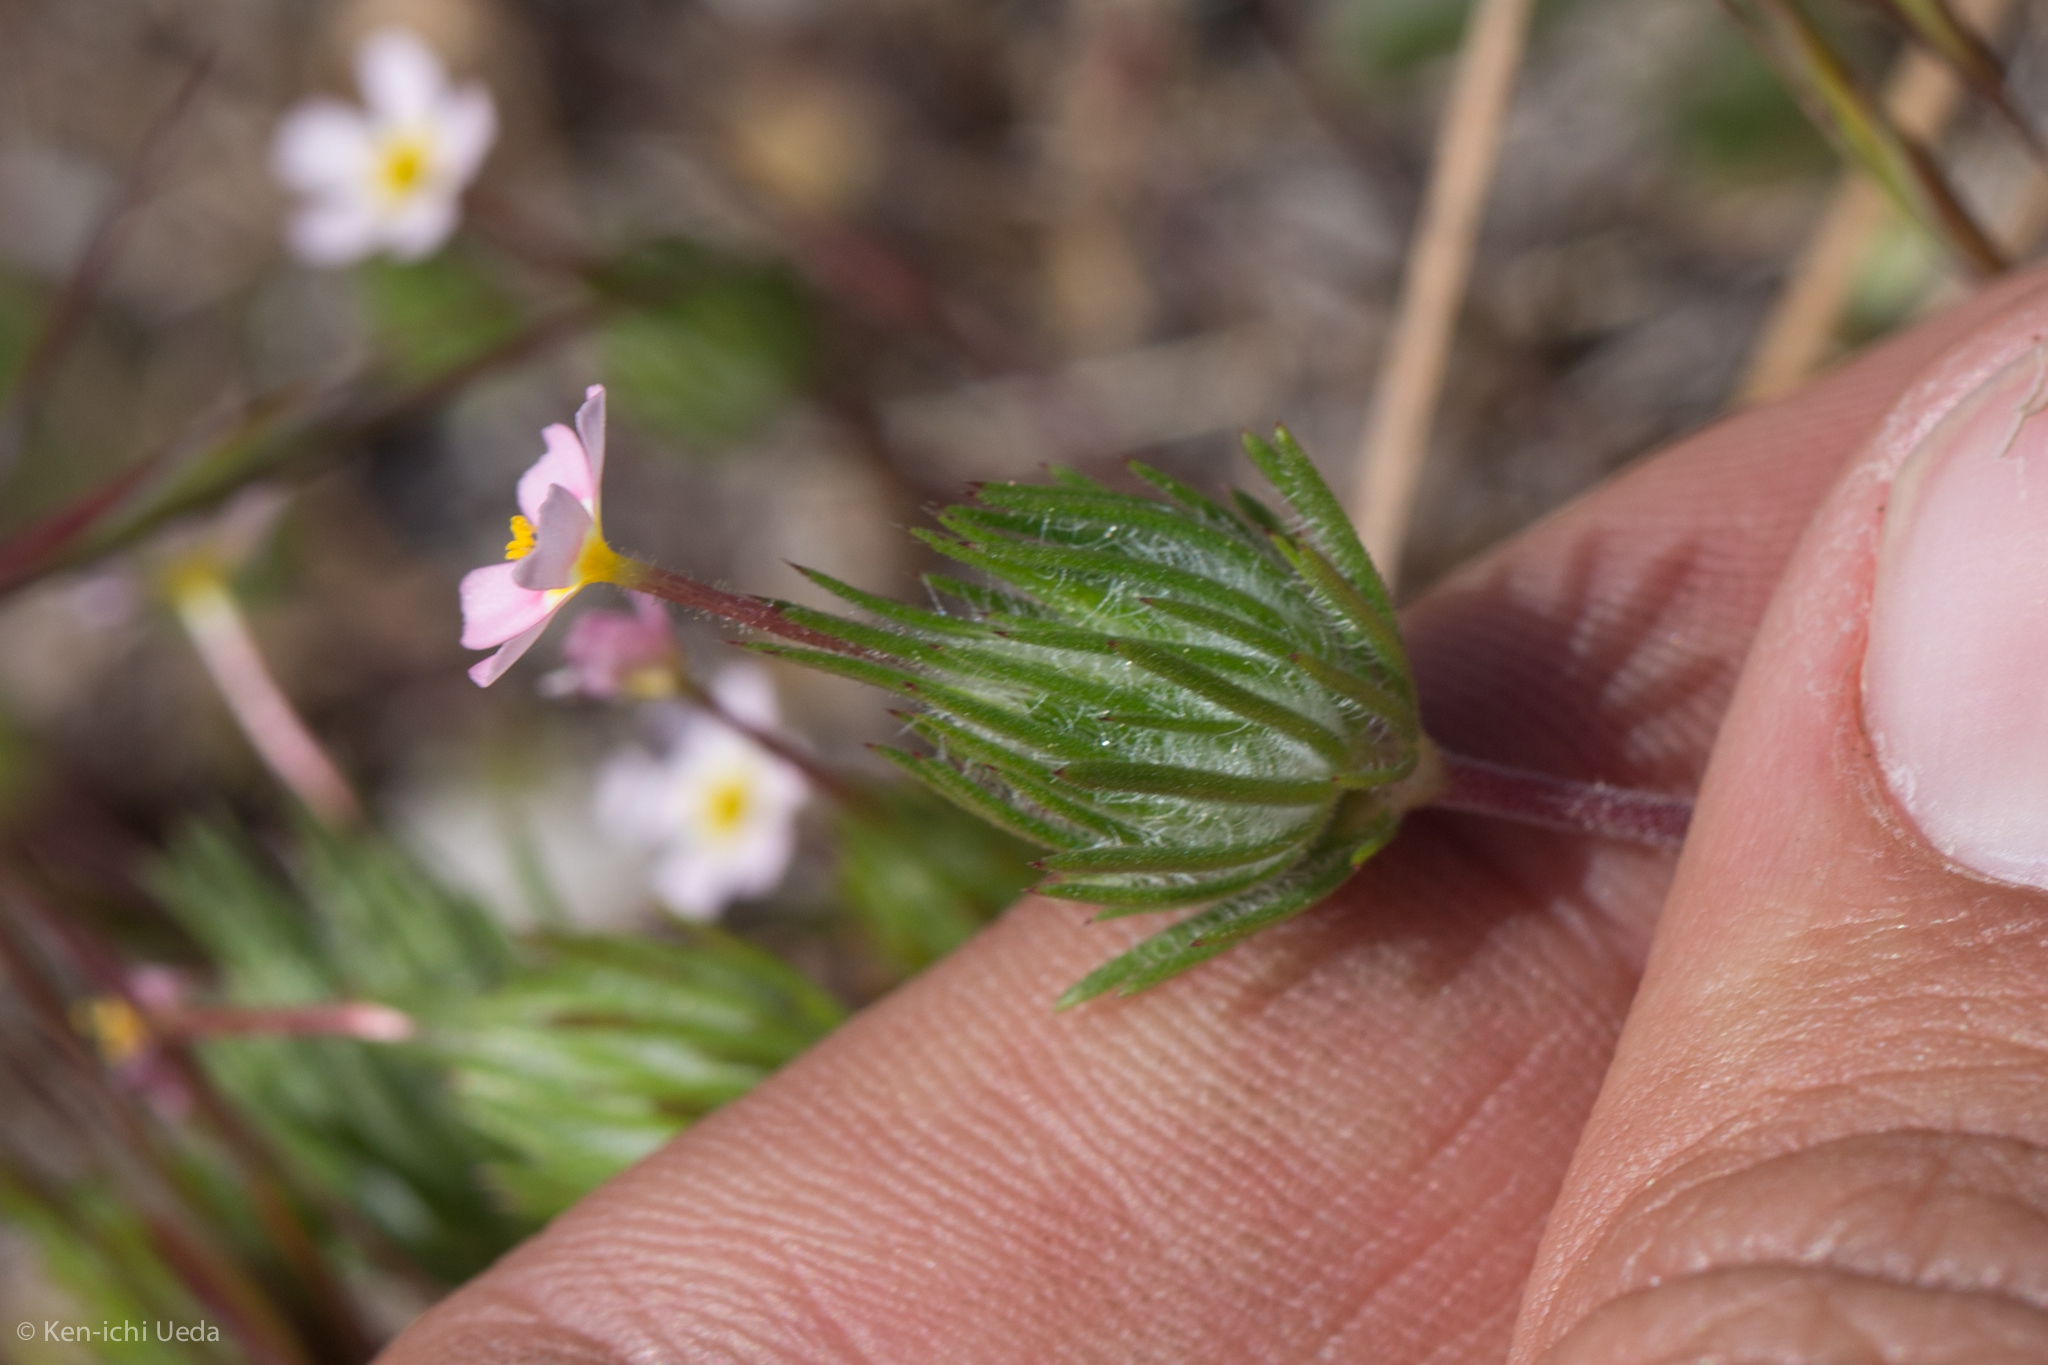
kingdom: Plantae
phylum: Tracheophyta
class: Magnoliopsida
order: Ericales
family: Polemoniaceae
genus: Leptosiphon
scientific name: Leptosiphon ciliatus
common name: Whiskerbrush
